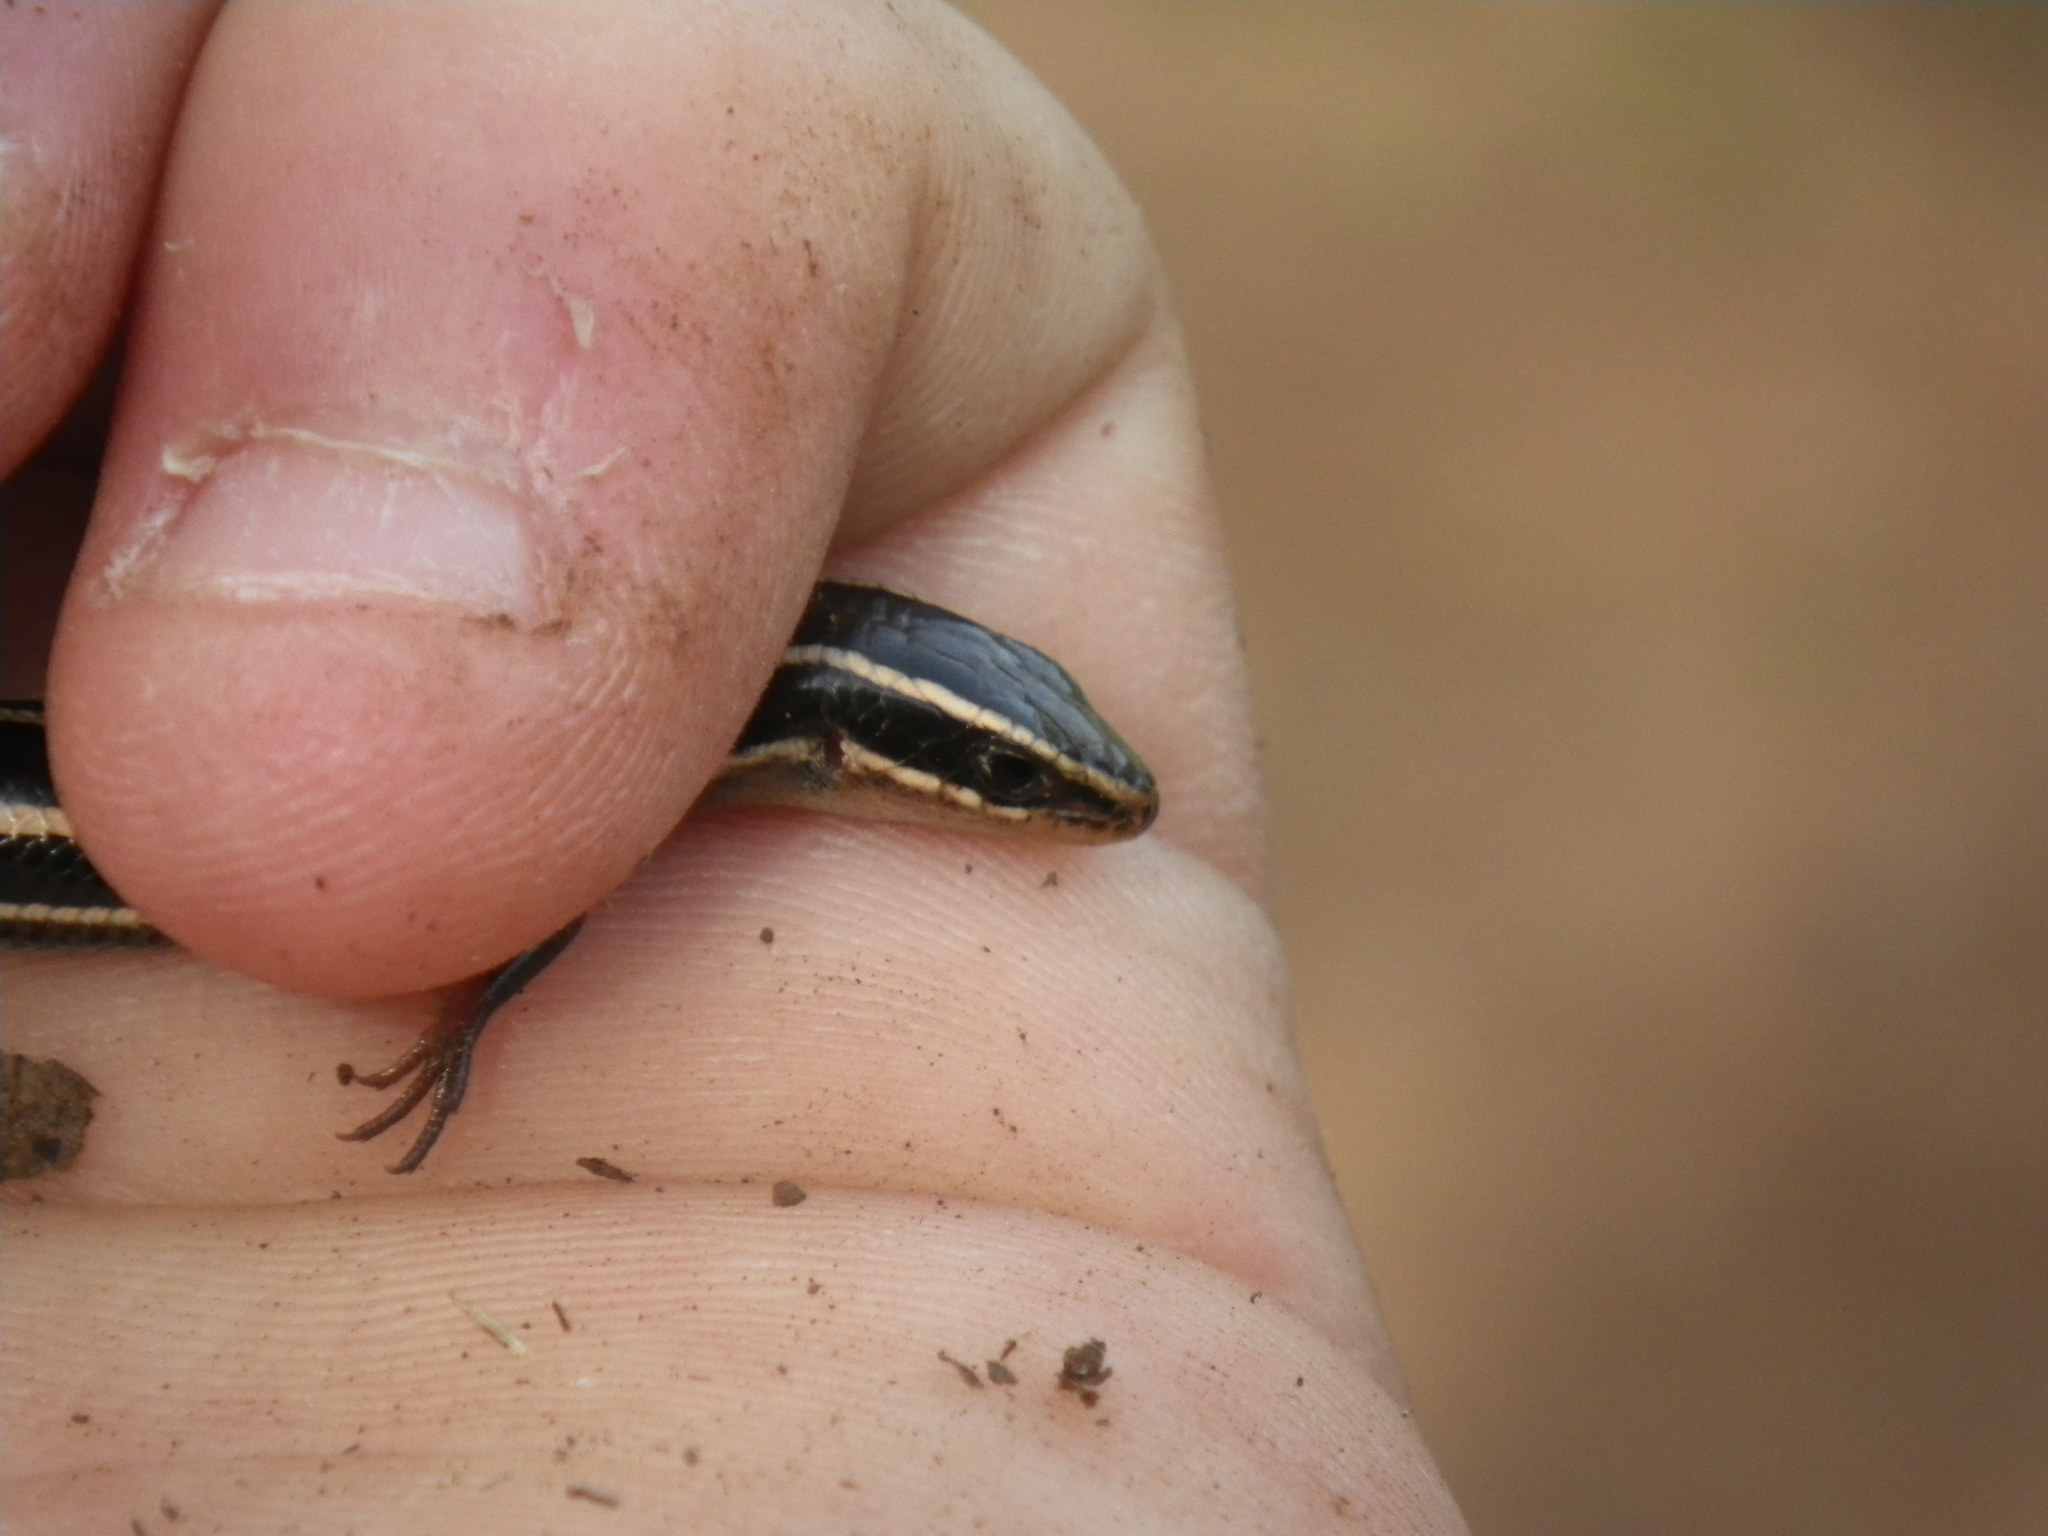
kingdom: Animalia
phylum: Chordata
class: Squamata
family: Scincidae
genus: Plestiodon
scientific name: Plestiodon skiltonianus
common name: Coronado island skink [interparietalis]
